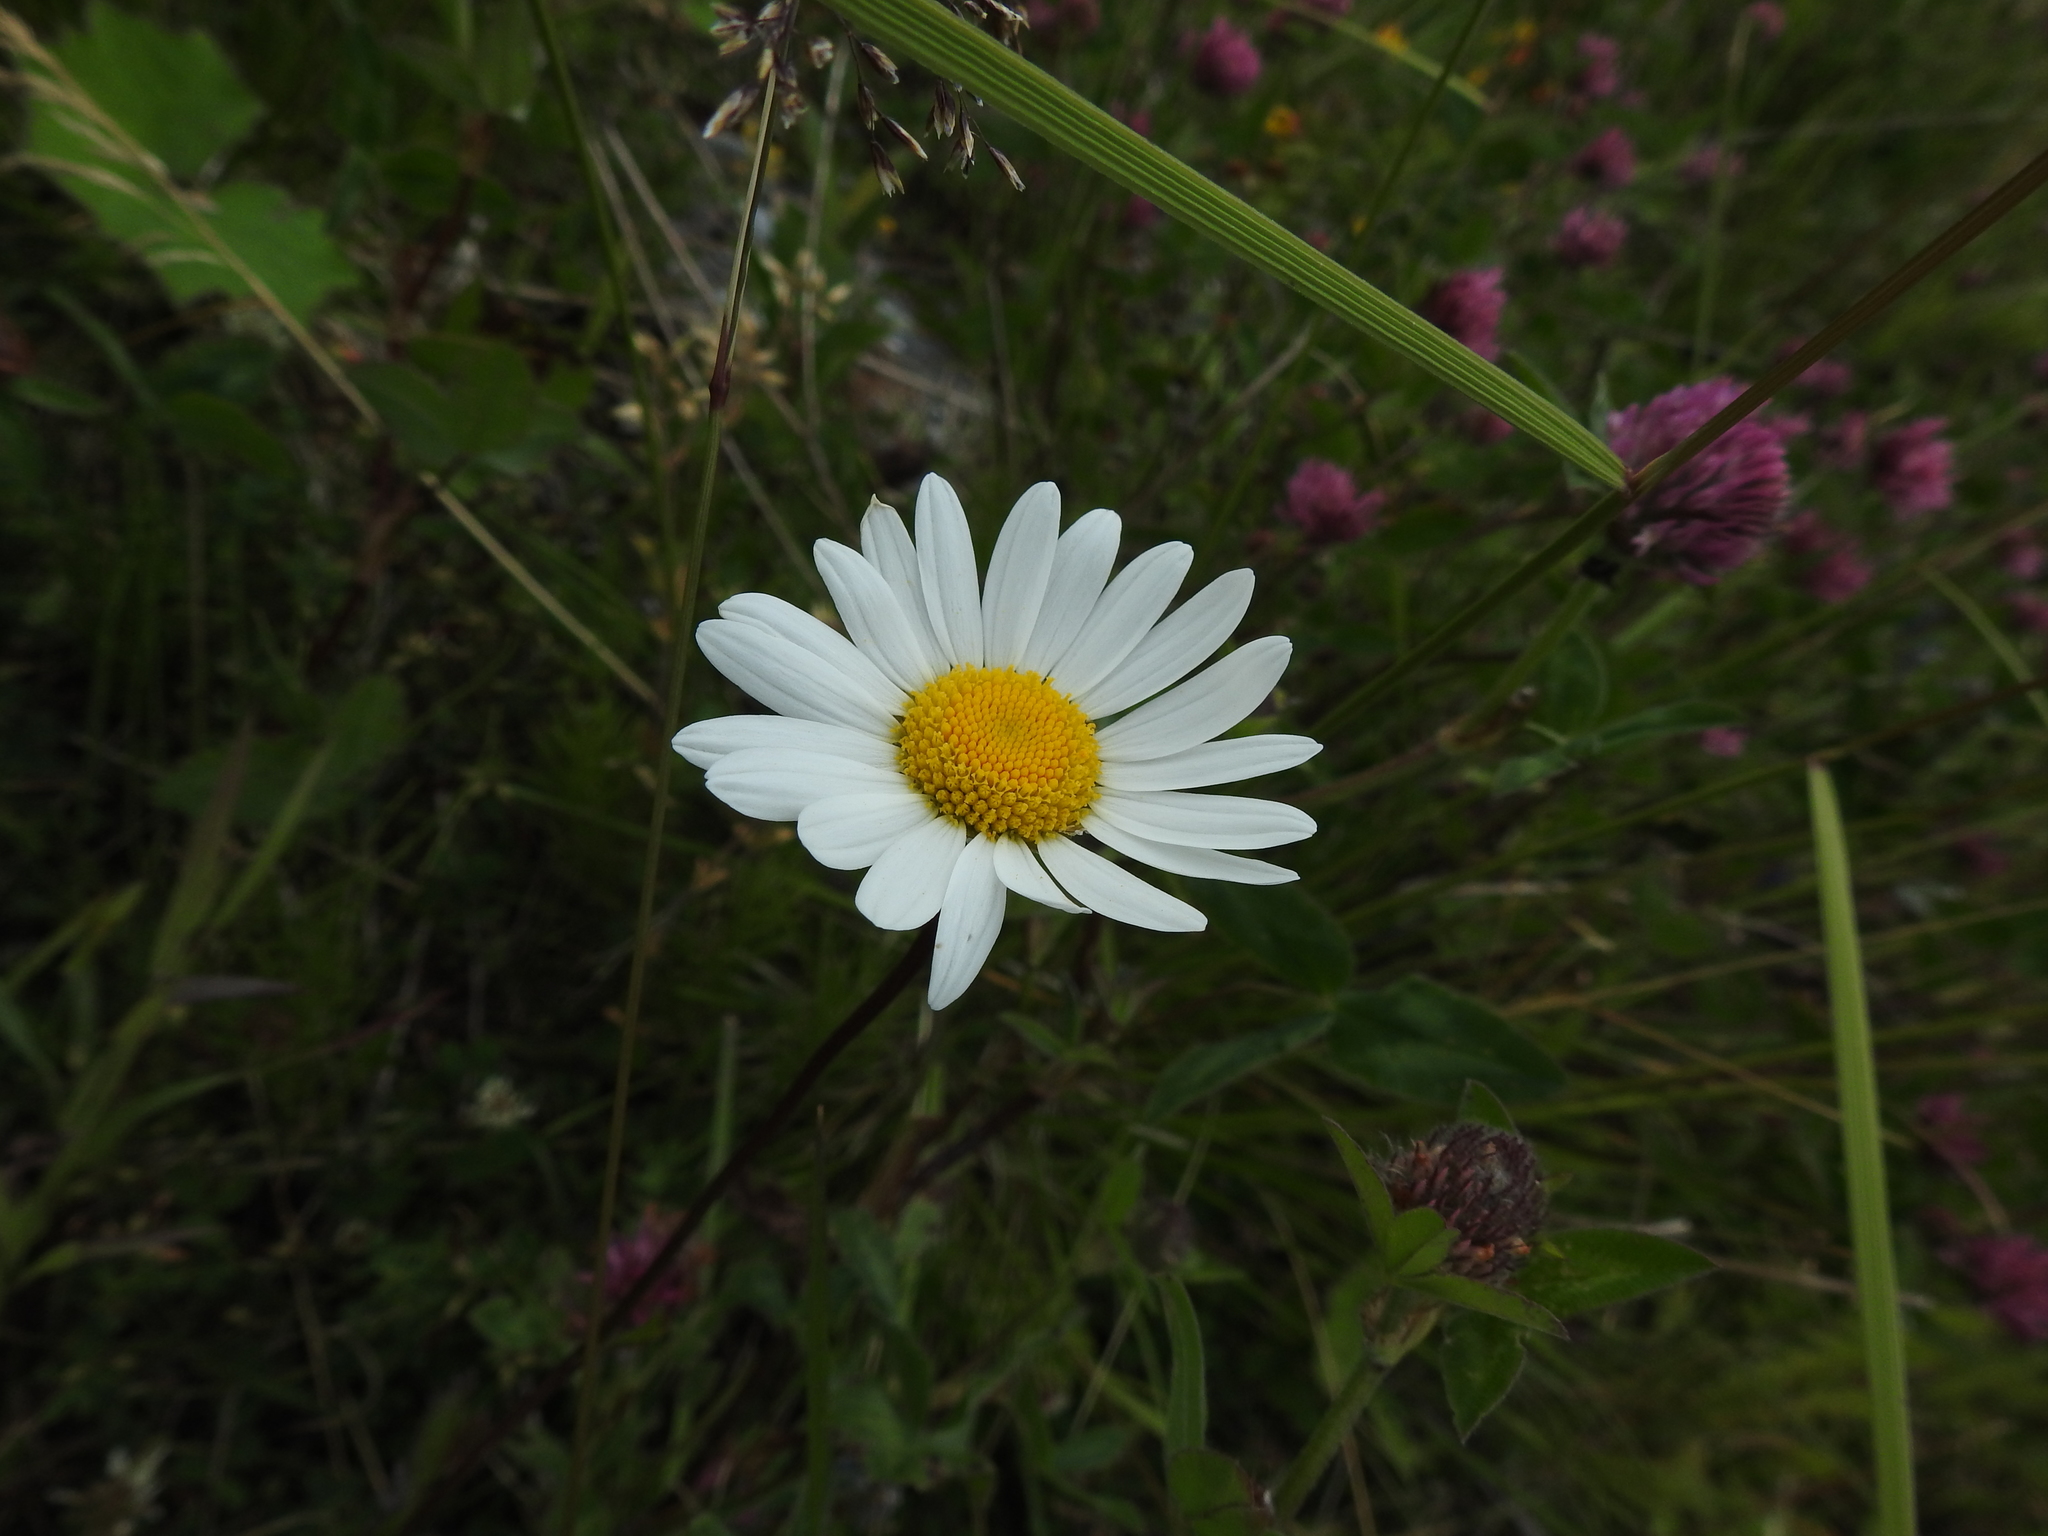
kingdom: Plantae
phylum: Tracheophyta
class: Magnoliopsida
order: Asterales
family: Asteraceae
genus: Leucanthemum
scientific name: Leucanthemum vulgare
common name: Oxeye daisy
